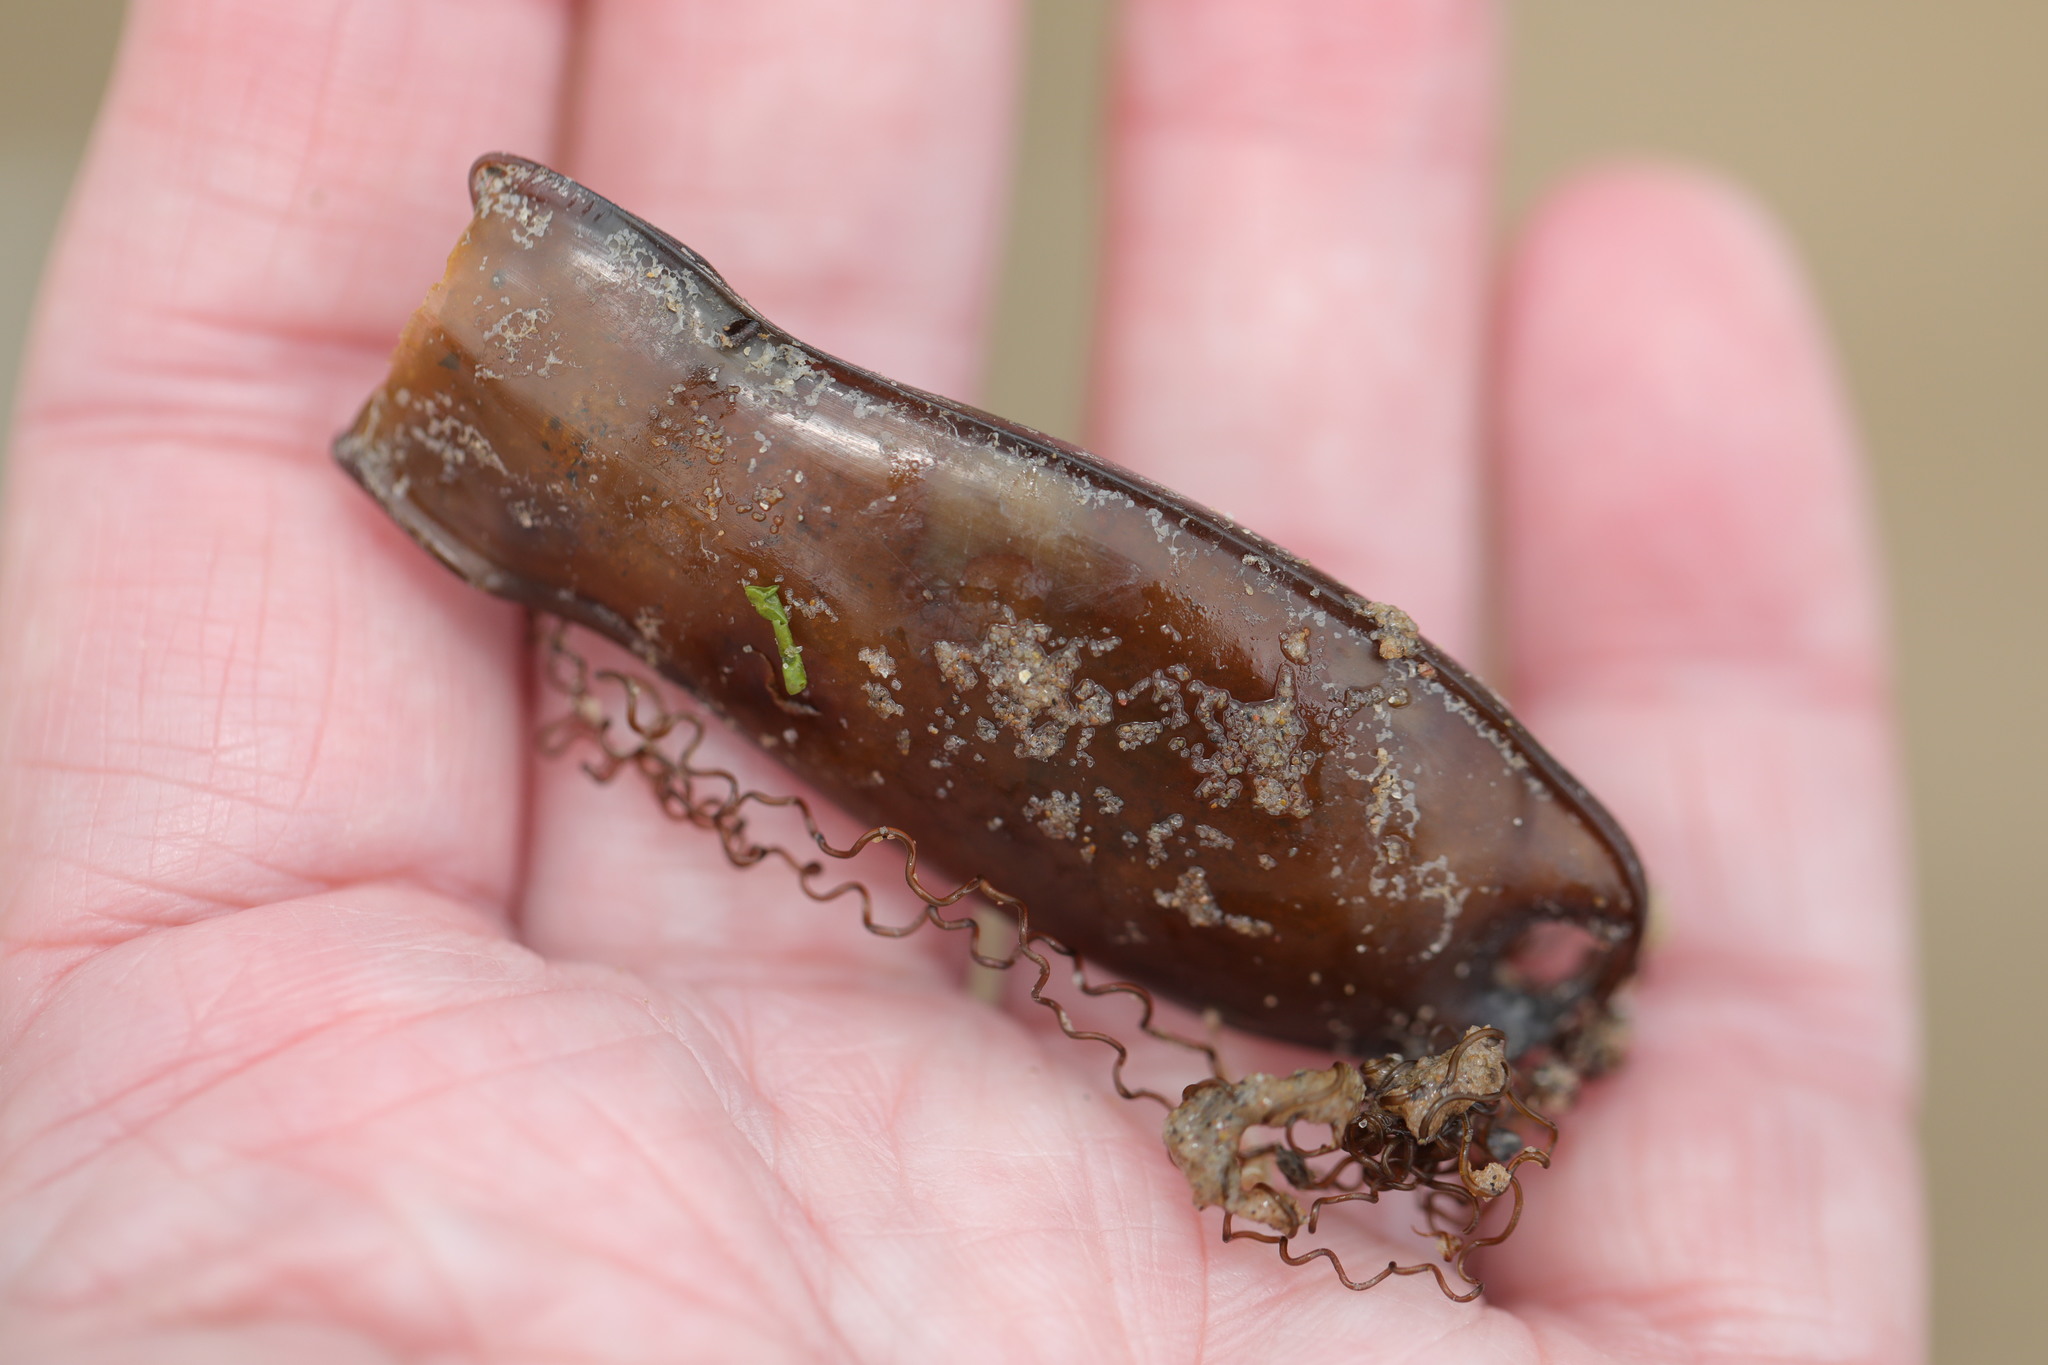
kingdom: Animalia
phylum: Chordata
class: Elasmobranchii
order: Carcharhiniformes
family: Scyliorhinidae
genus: Scyliorhinus
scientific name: Scyliorhinus canicula
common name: Lesser spotted dogfish
